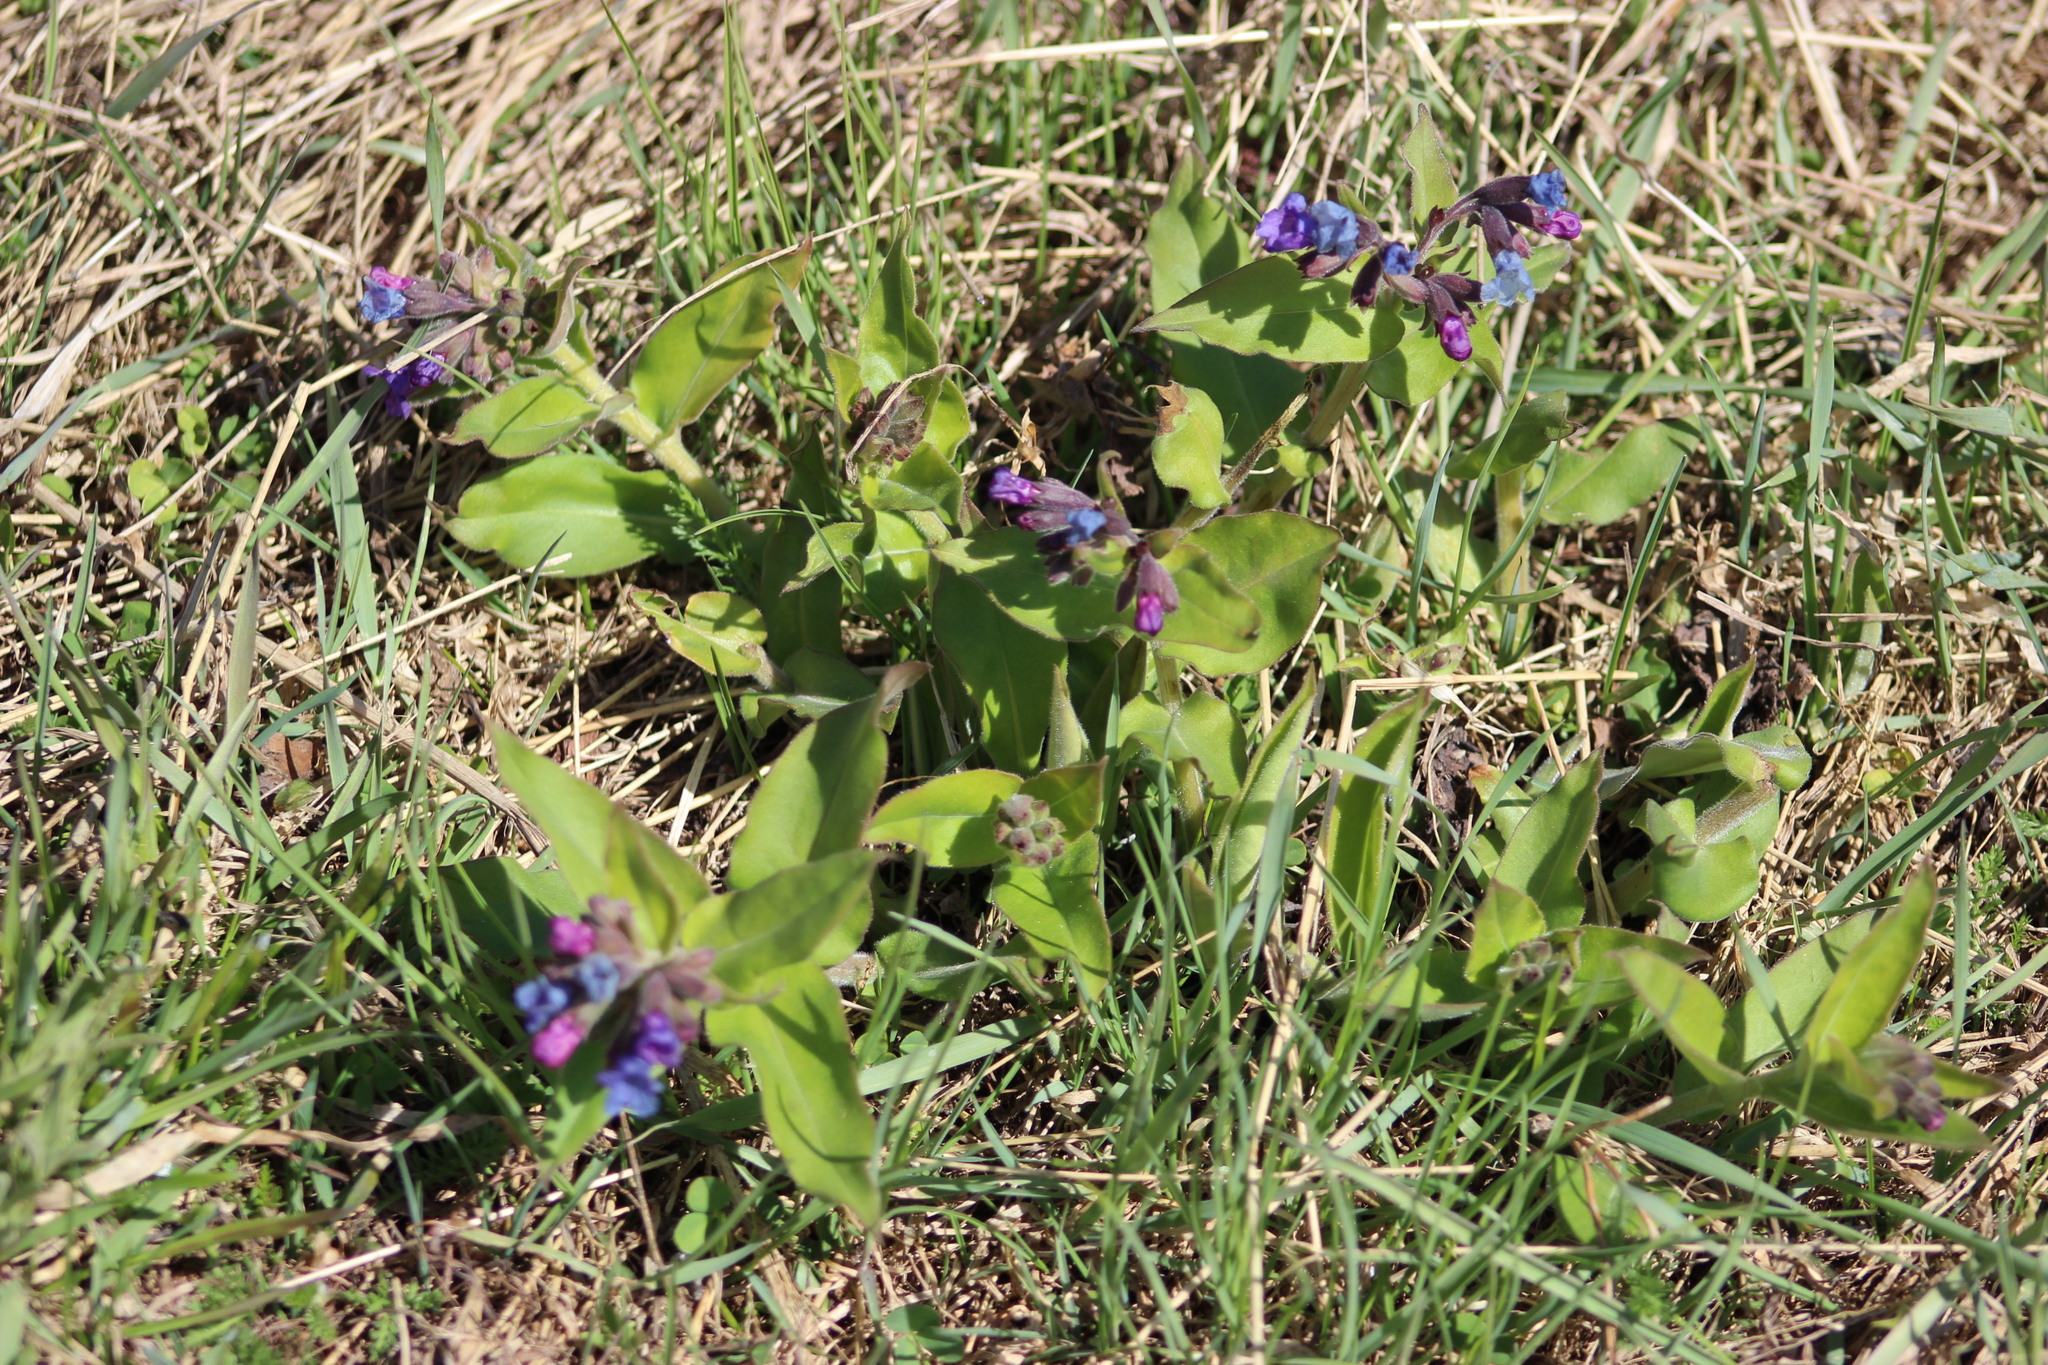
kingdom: Plantae
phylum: Tracheophyta
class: Magnoliopsida
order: Boraginales
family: Boraginaceae
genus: Pulmonaria
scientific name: Pulmonaria mollis
